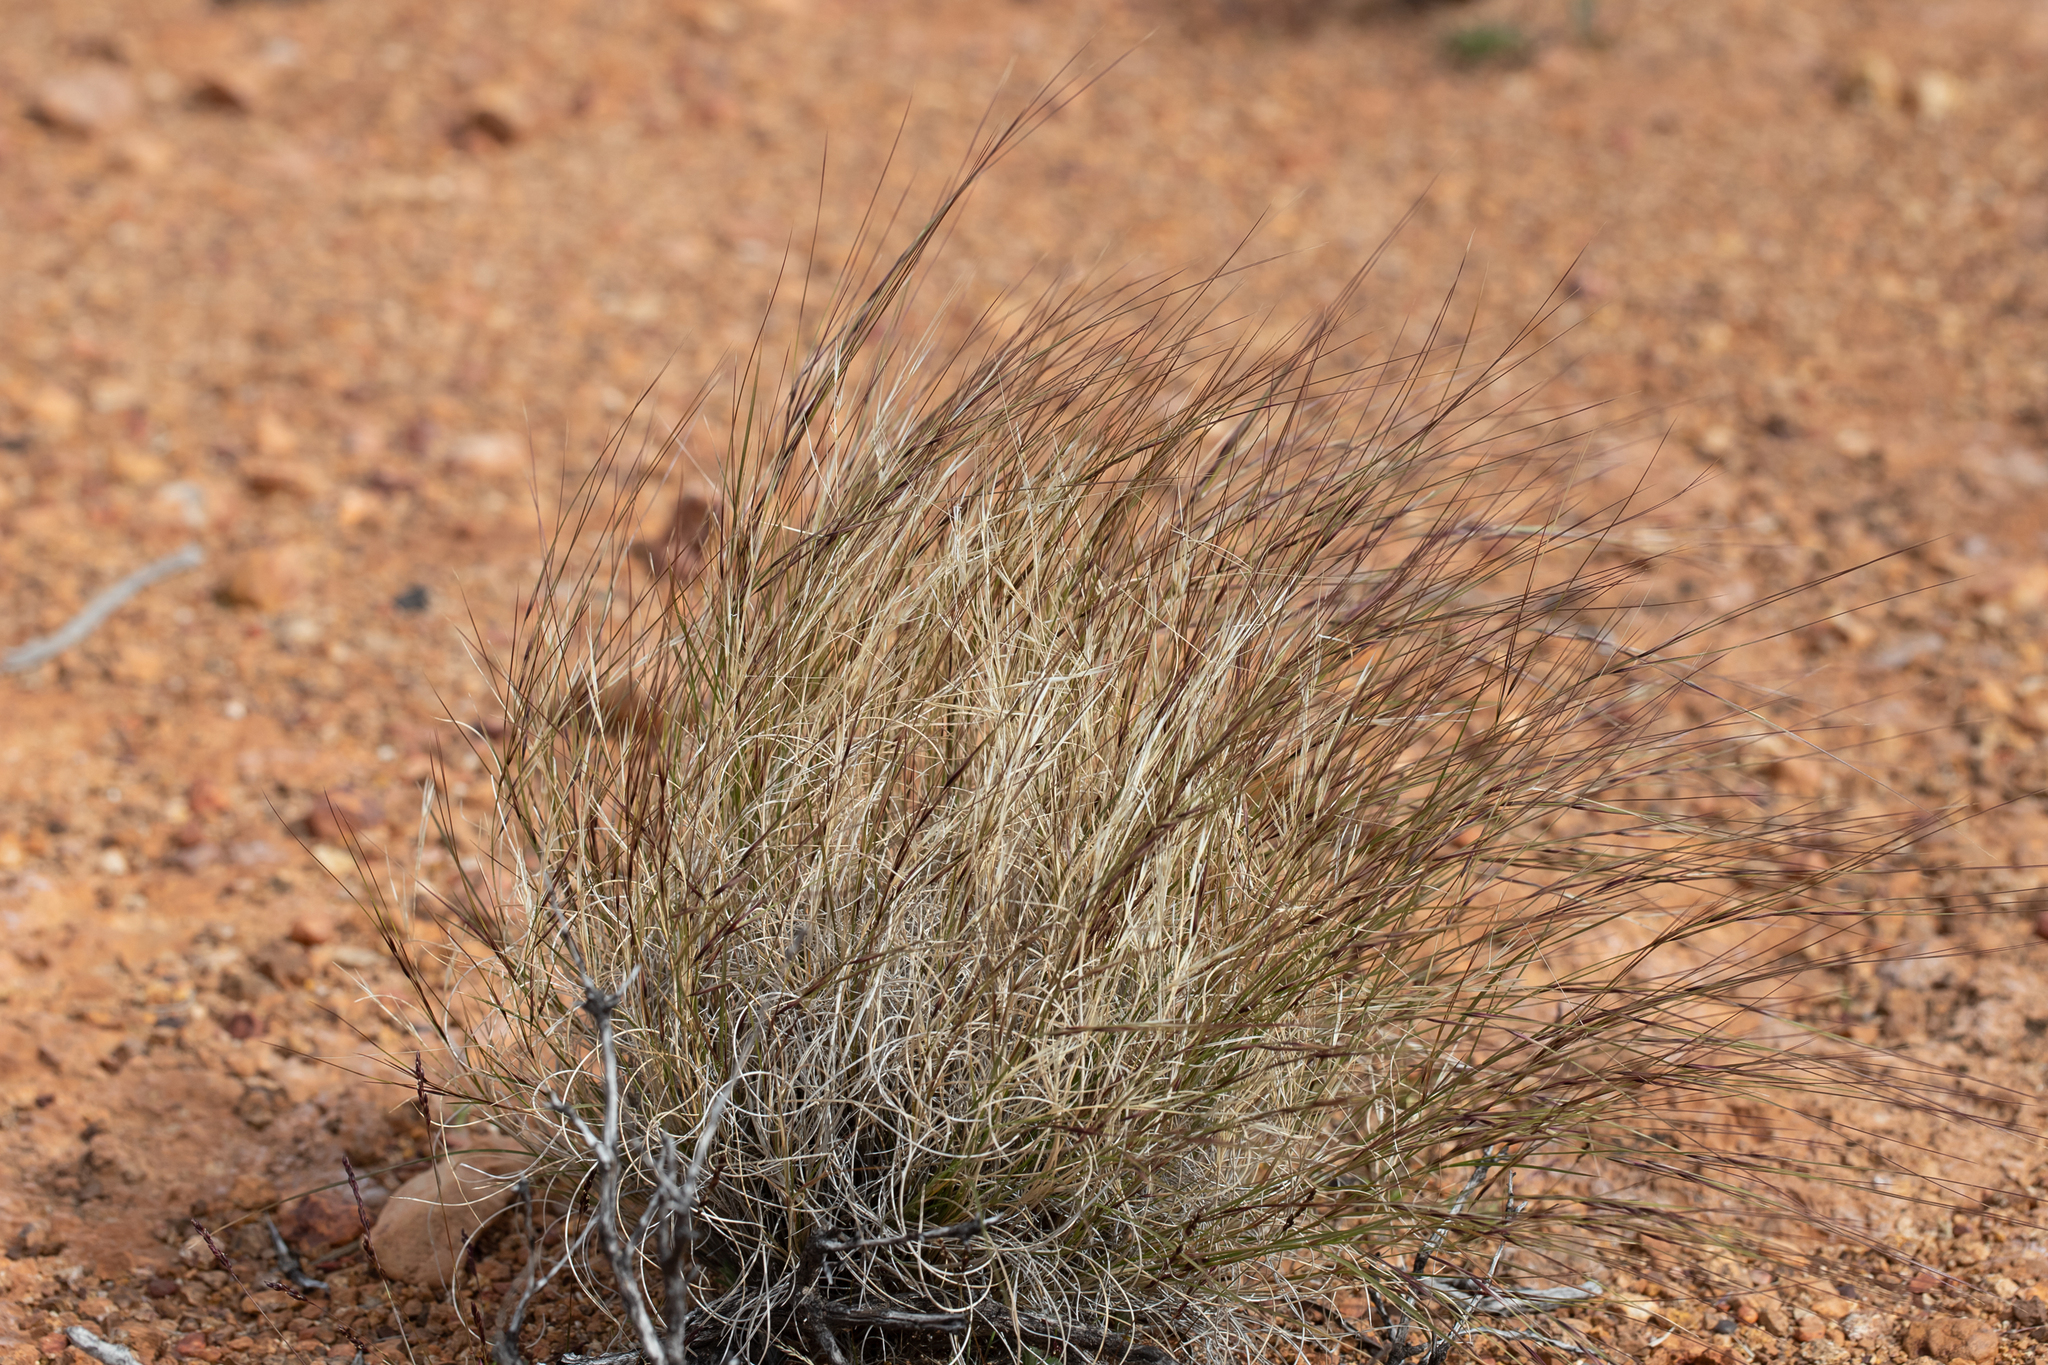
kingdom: Plantae
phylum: Tracheophyta
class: Liliopsida
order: Poales
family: Poaceae
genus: Aristida
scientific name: Aristida contorta
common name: Bunch kerosene grass
